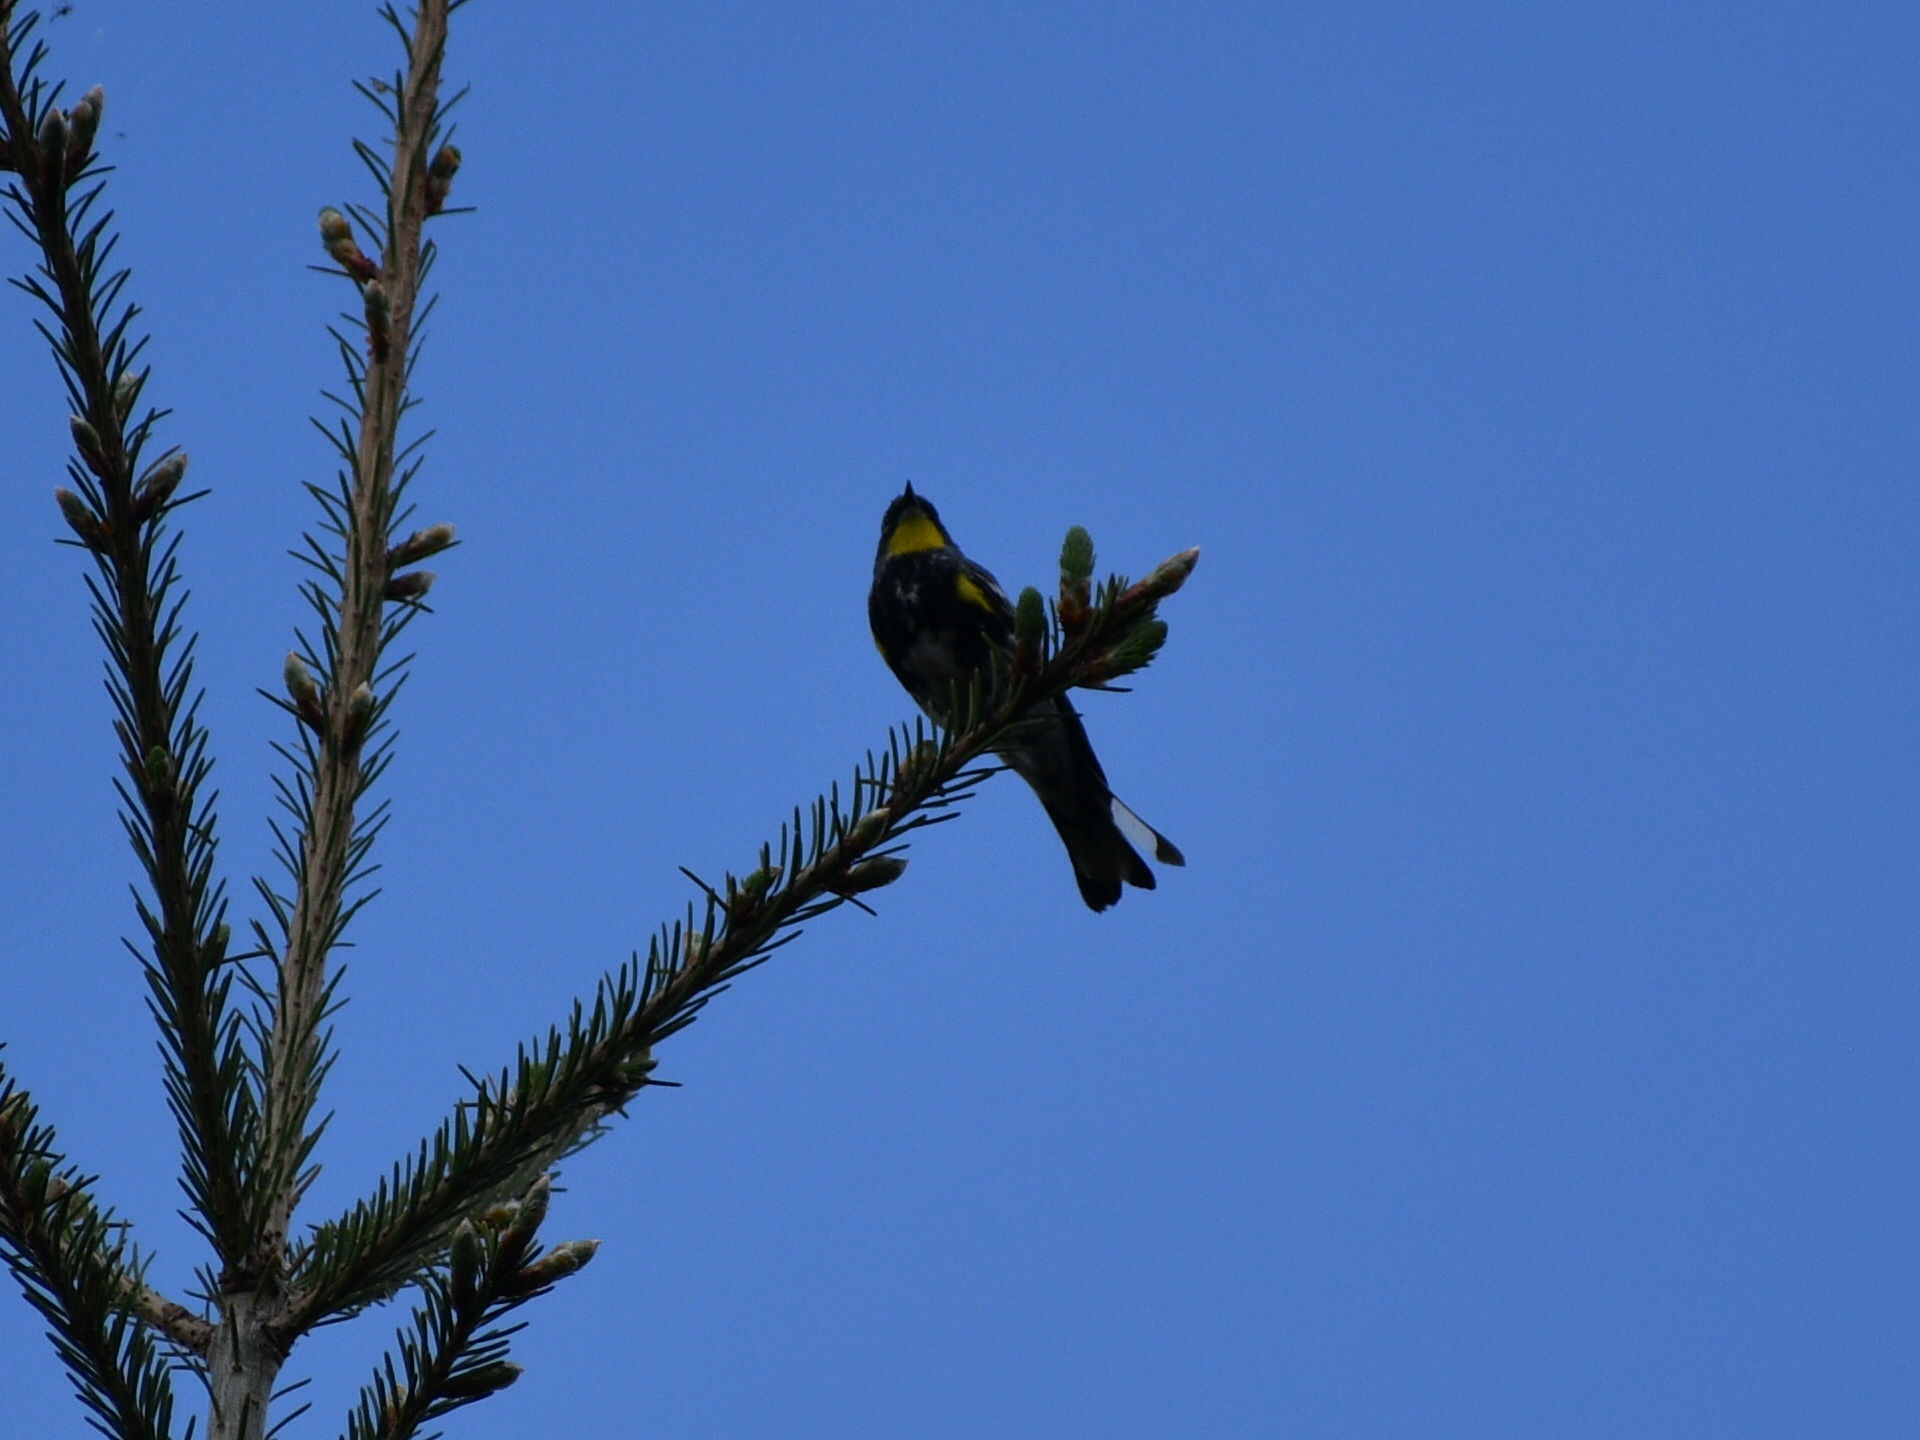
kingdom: Animalia
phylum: Chordata
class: Aves
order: Passeriformes
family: Parulidae
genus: Setophaga
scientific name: Setophaga auduboni
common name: Audubon's warbler
